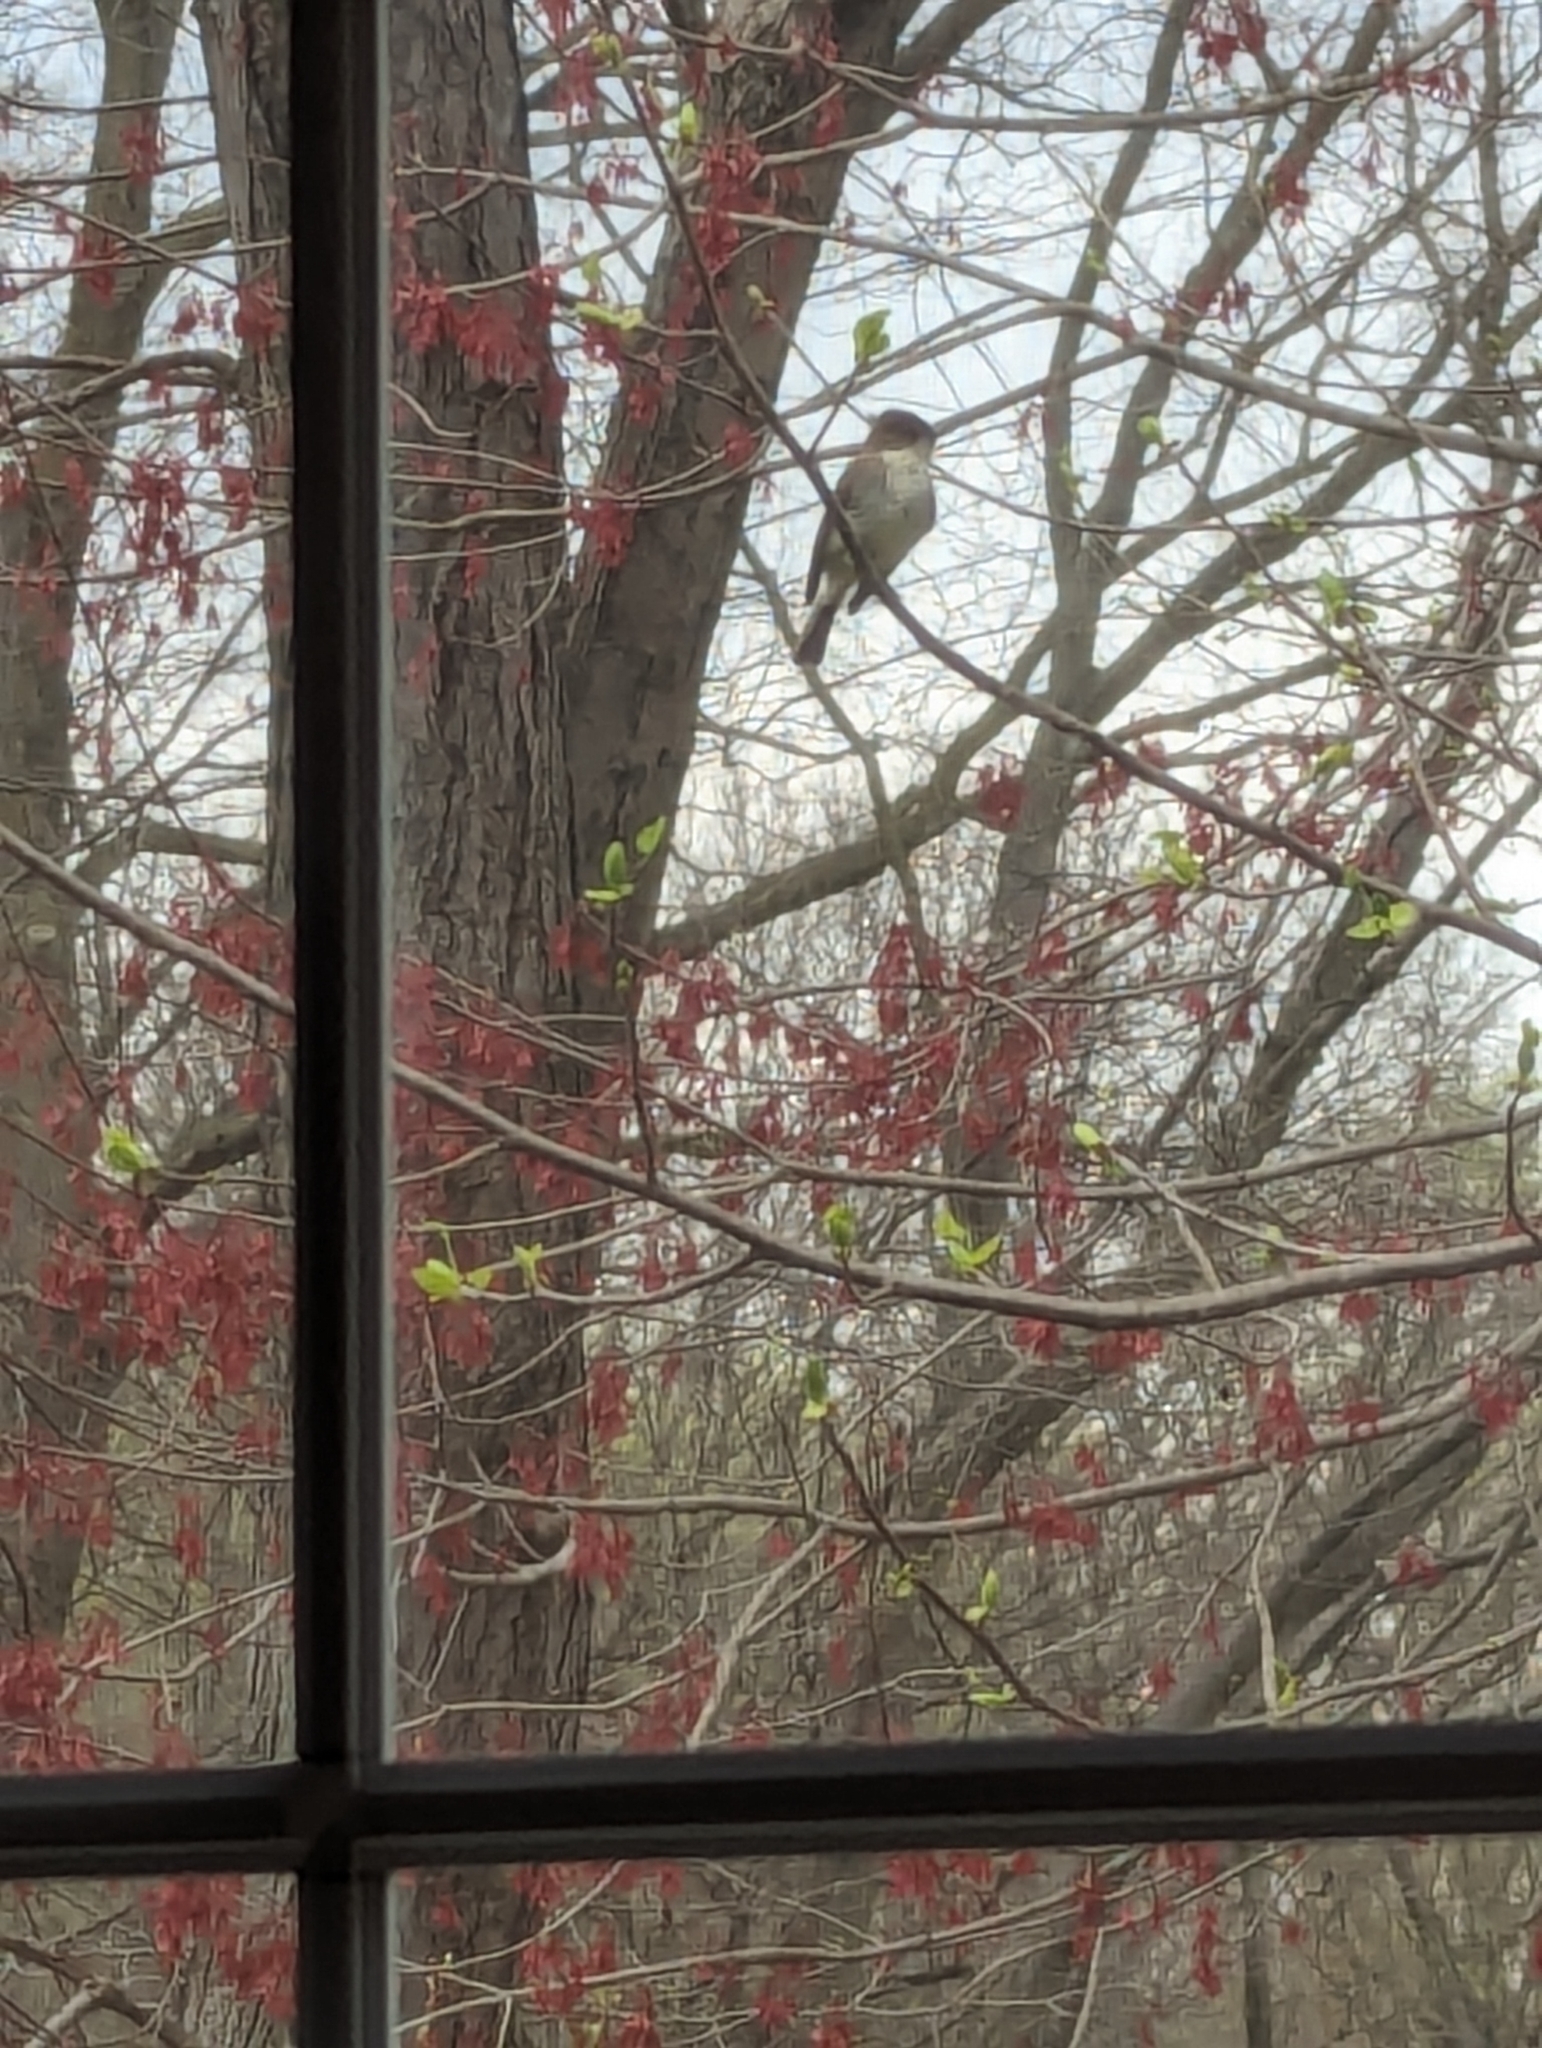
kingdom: Animalia
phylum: Chordata
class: Aves
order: Passeriformes
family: Tyrannidae
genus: Sayornis
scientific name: Sayornis phoebe
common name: Eastern phoebe
